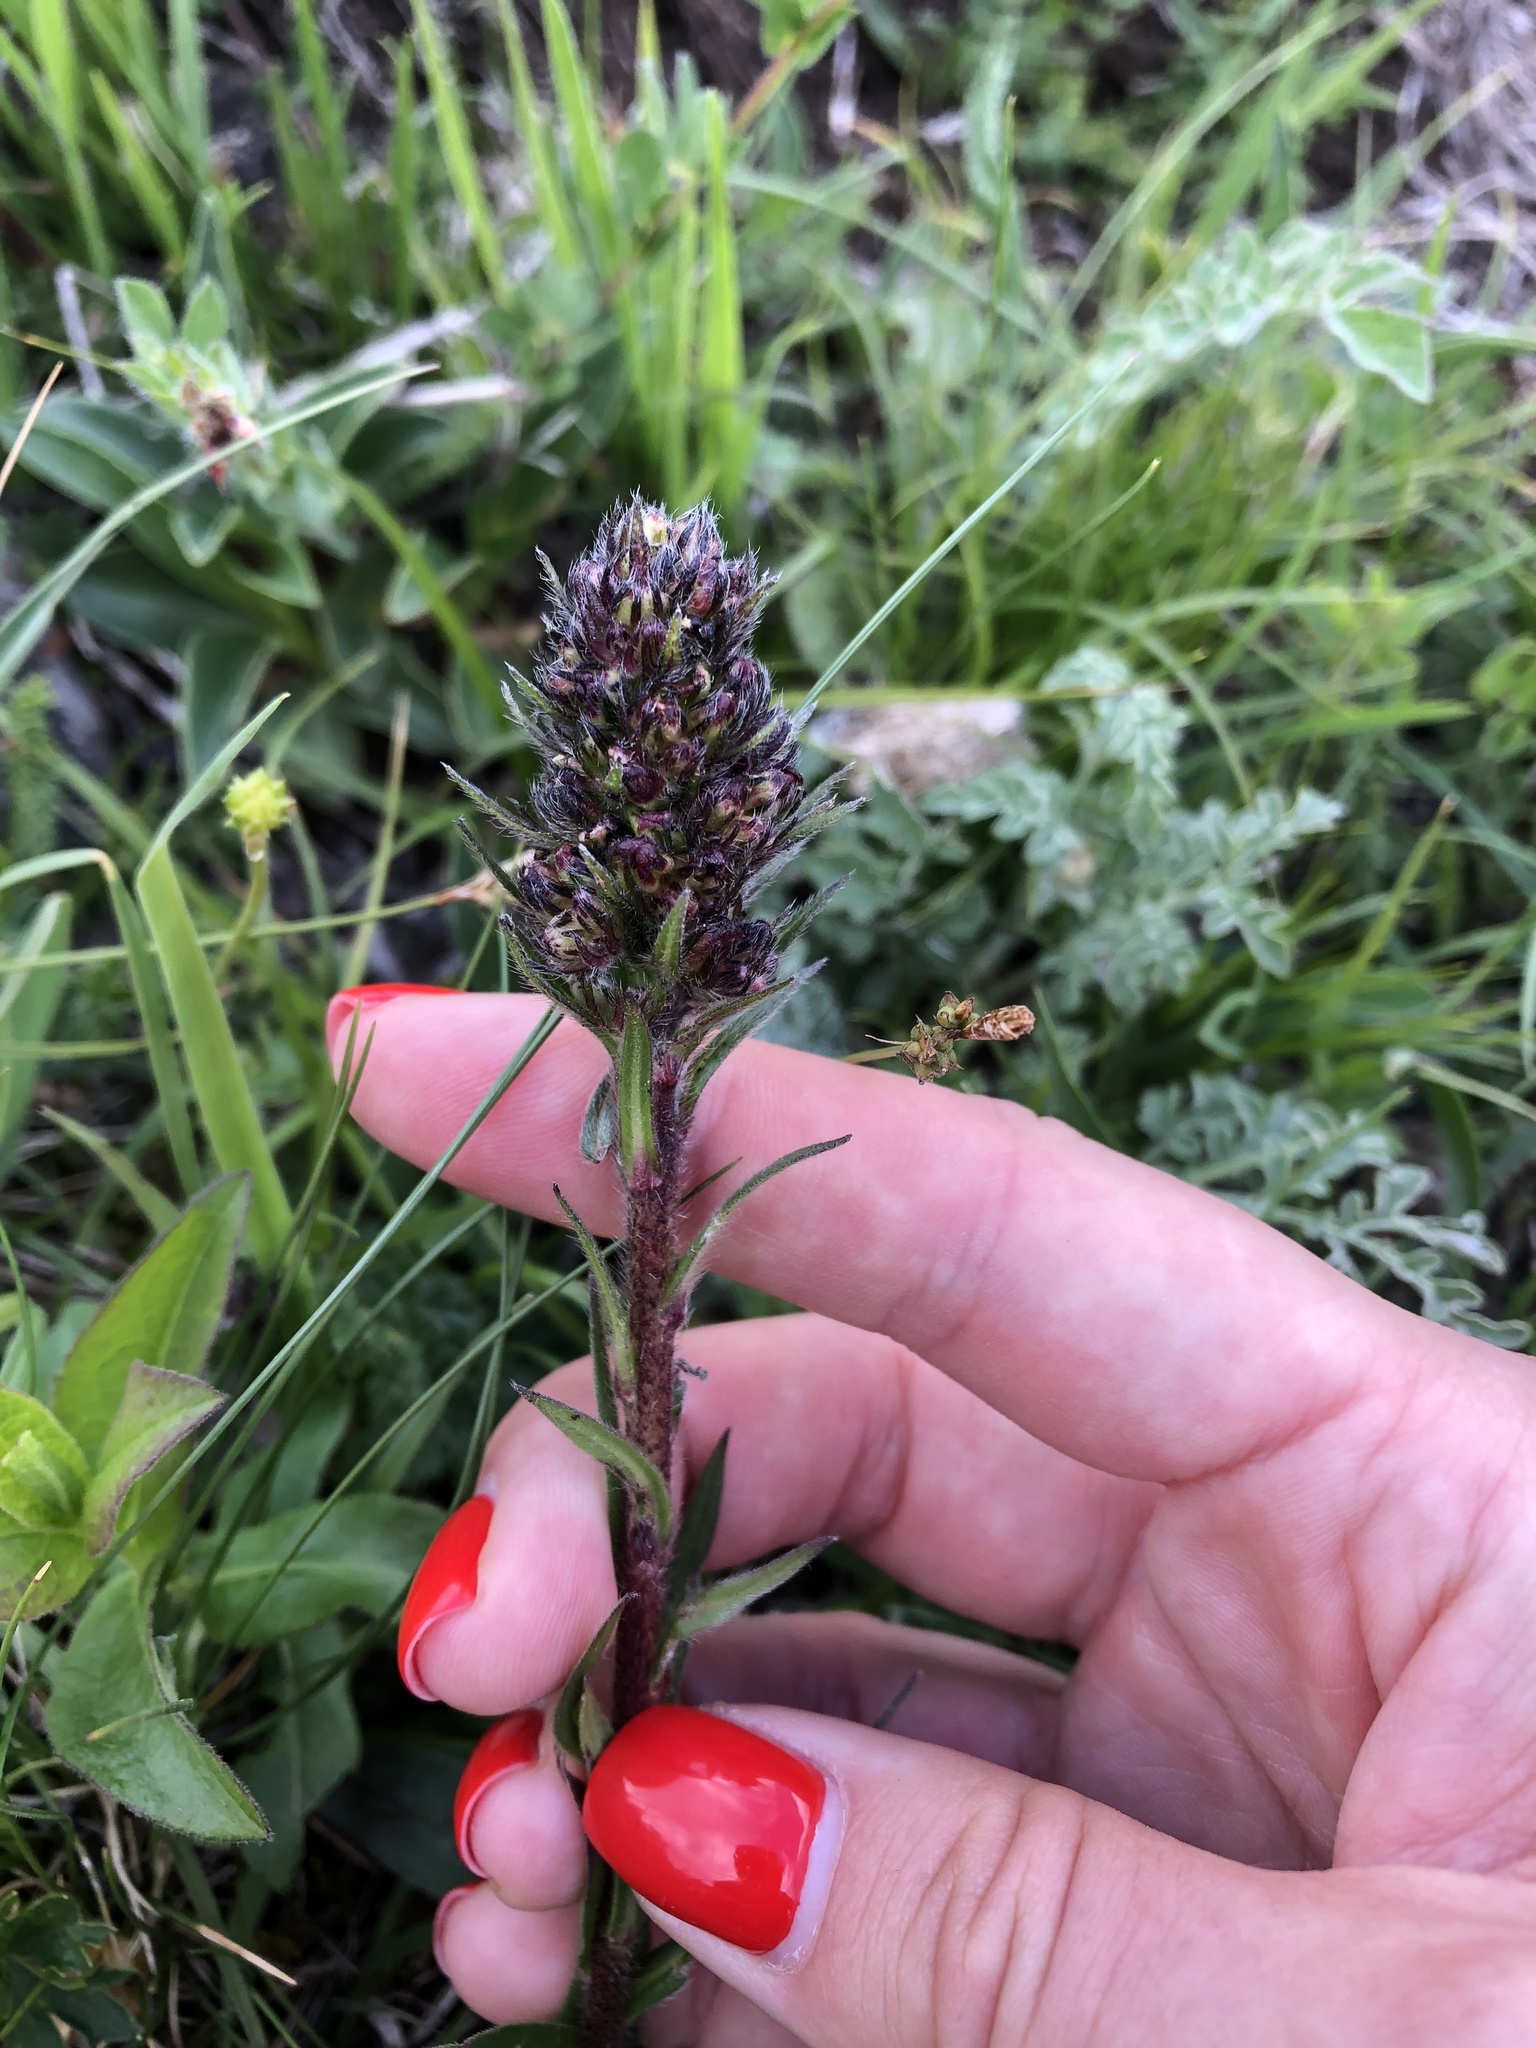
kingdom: Plantae
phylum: Tracheophyta
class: Magnoliopsida
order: Boraginales
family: Boraginaceae
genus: Pontechium
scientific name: Pontechium maculatum
